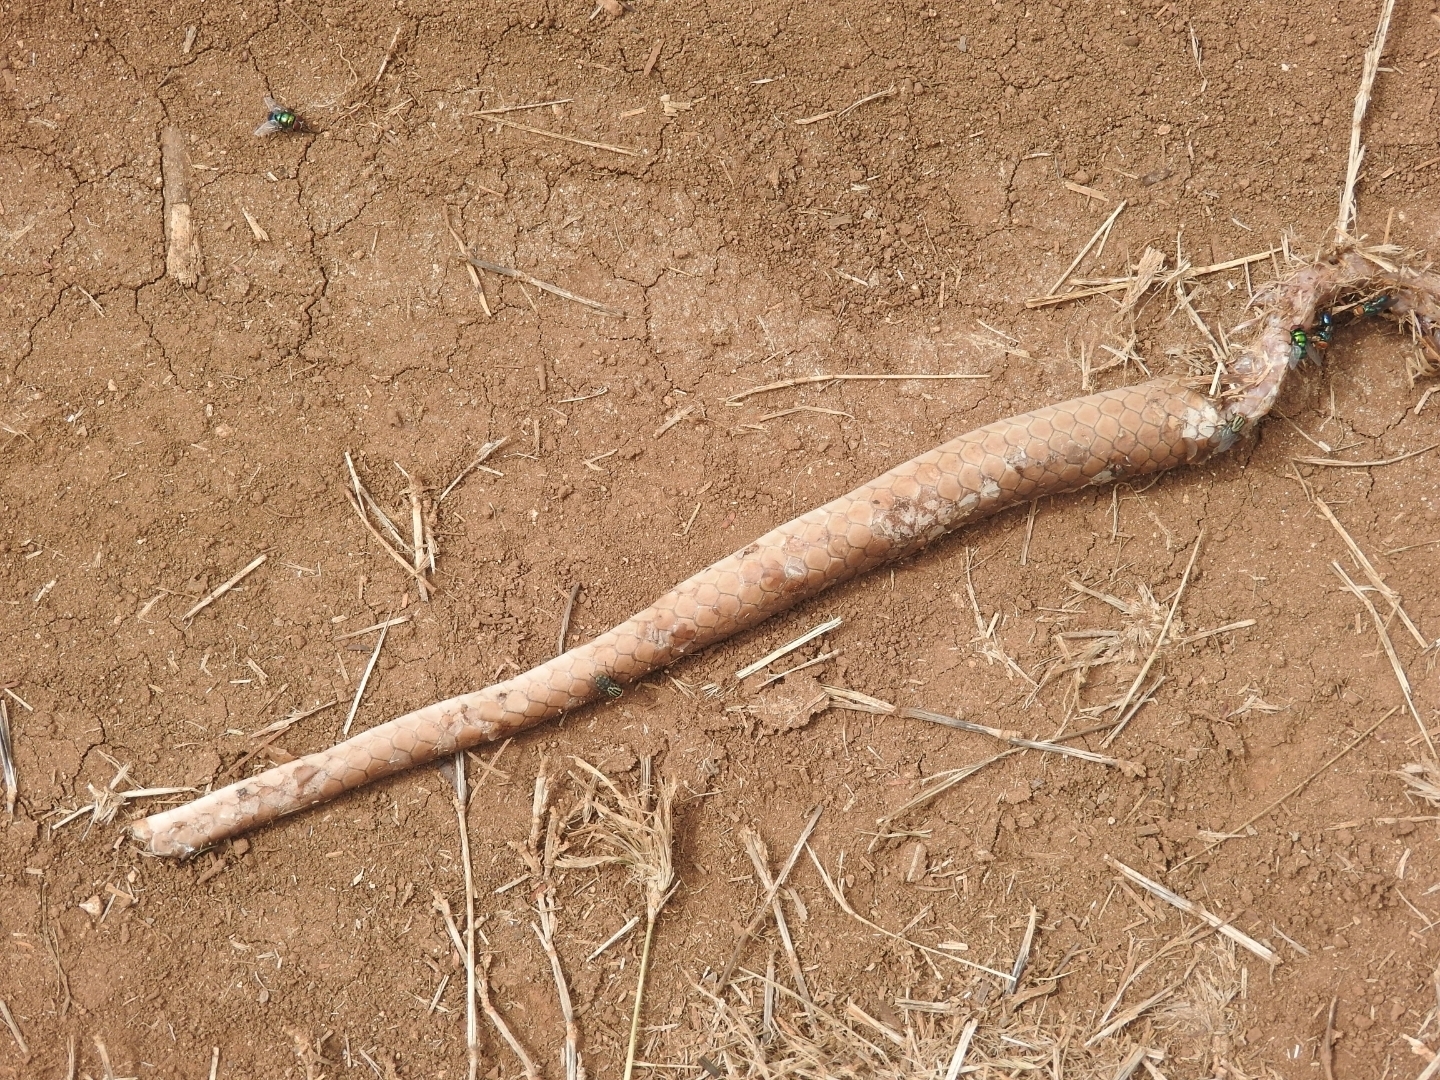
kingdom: Animalia
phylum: Chordata
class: Squamata
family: Colubridae
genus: Masticophis
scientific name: Masticophis mentovarius
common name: Neotropical whip snake
